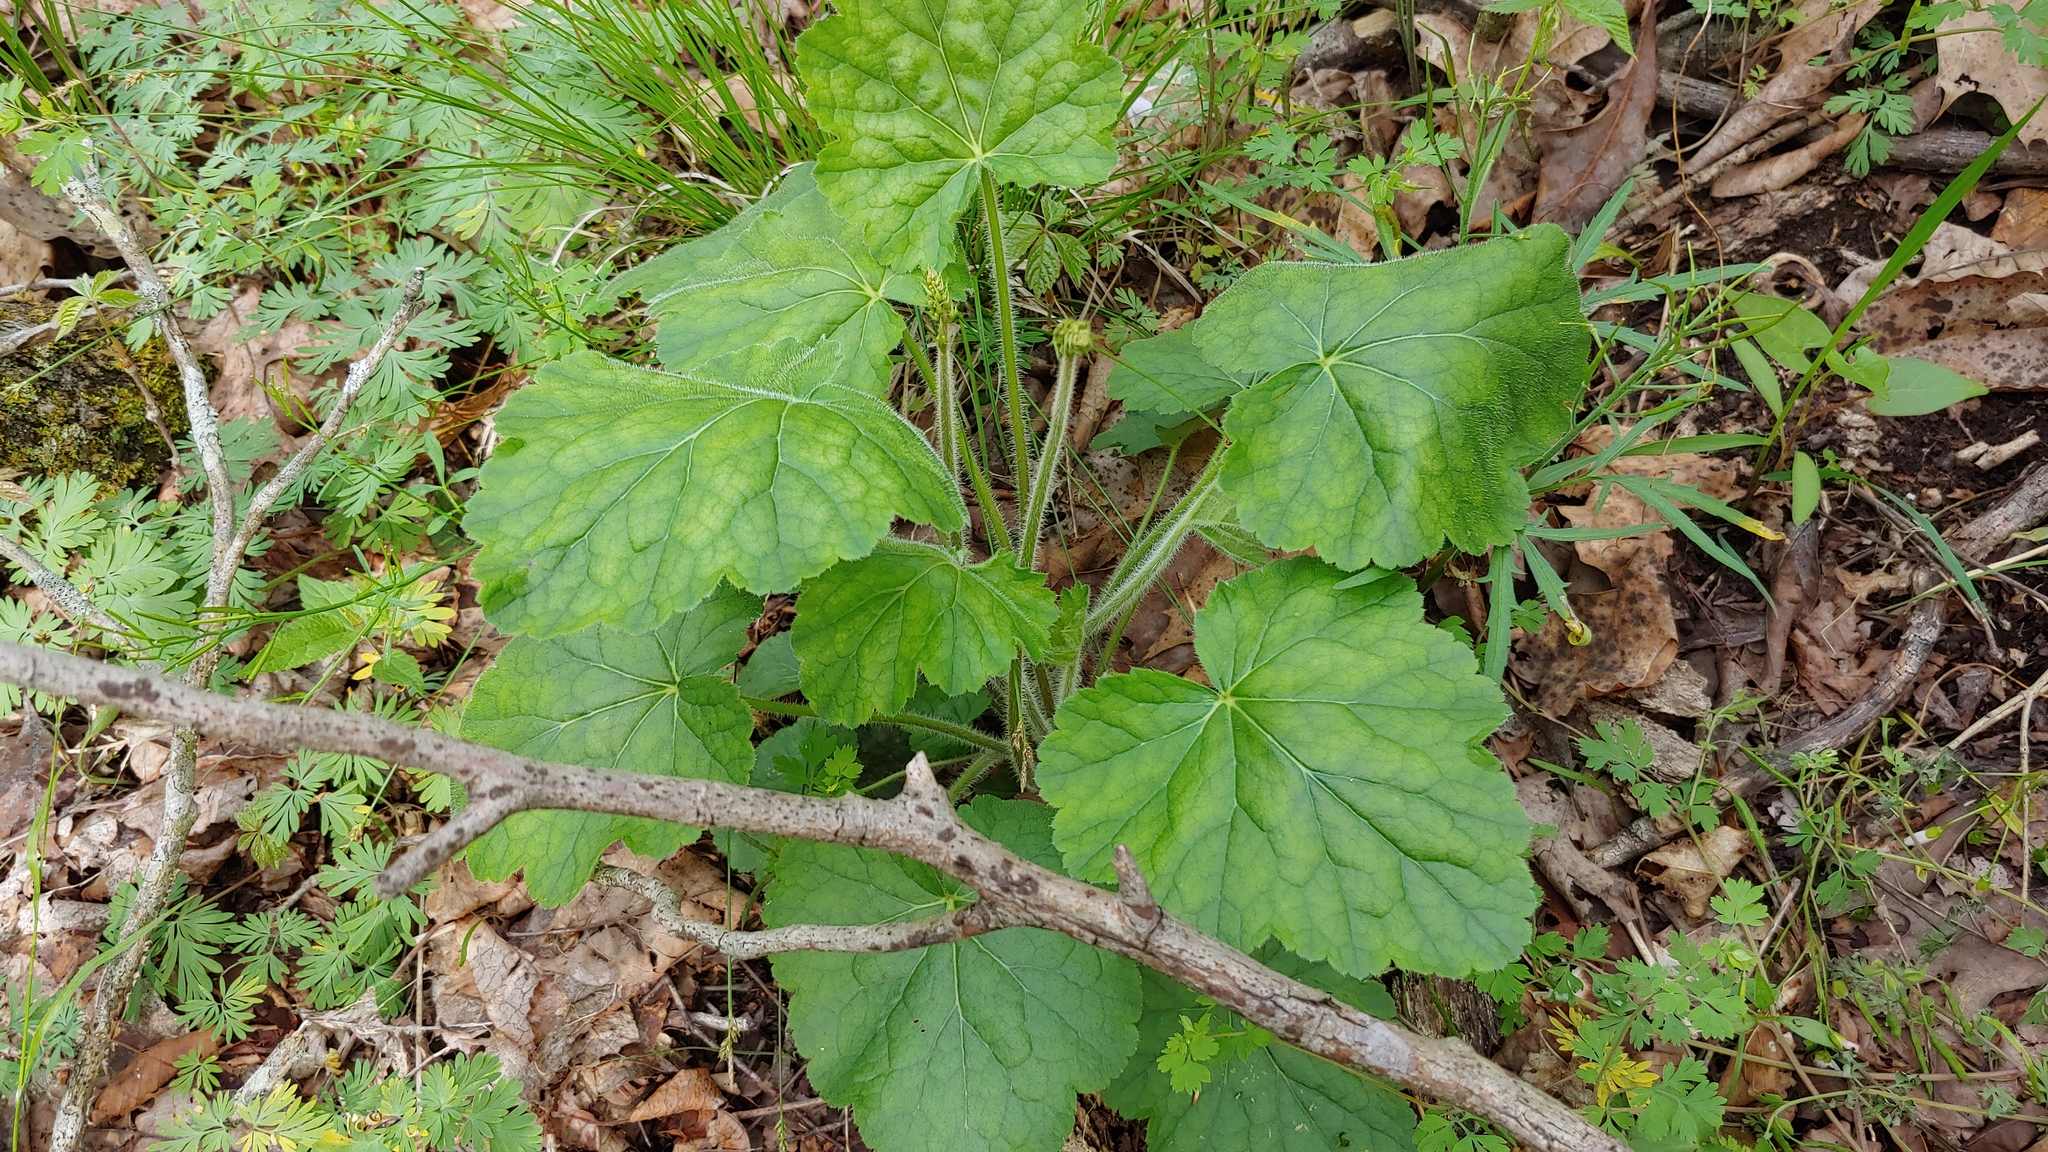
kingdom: Plantae
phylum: Tracheophyta
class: Magnoliopsida
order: Saxifragales
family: Saxifragaceae
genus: Heuchera
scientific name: Heuchera americana
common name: Alumroot
